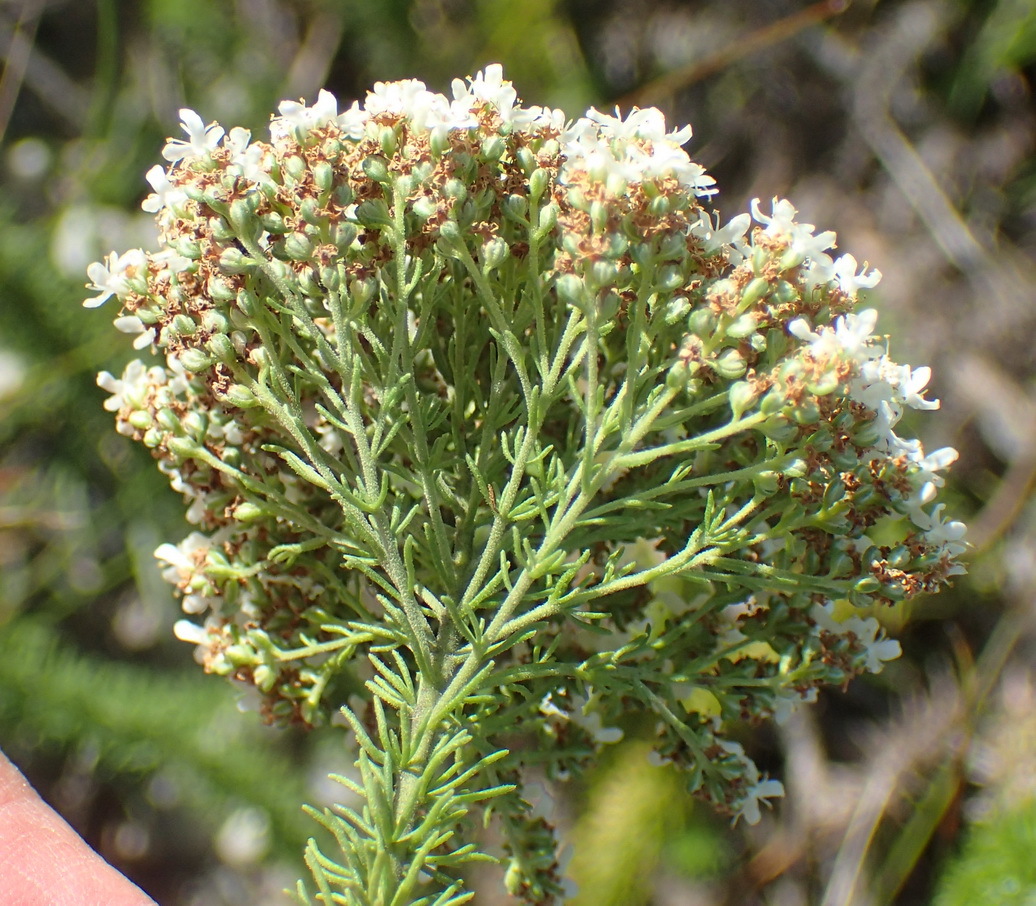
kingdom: Plantae
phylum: Tracheophyta
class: Magnoliopsida
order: Lamiales
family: Scrophulariaceae
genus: Selago
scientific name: Selago corymbosa
